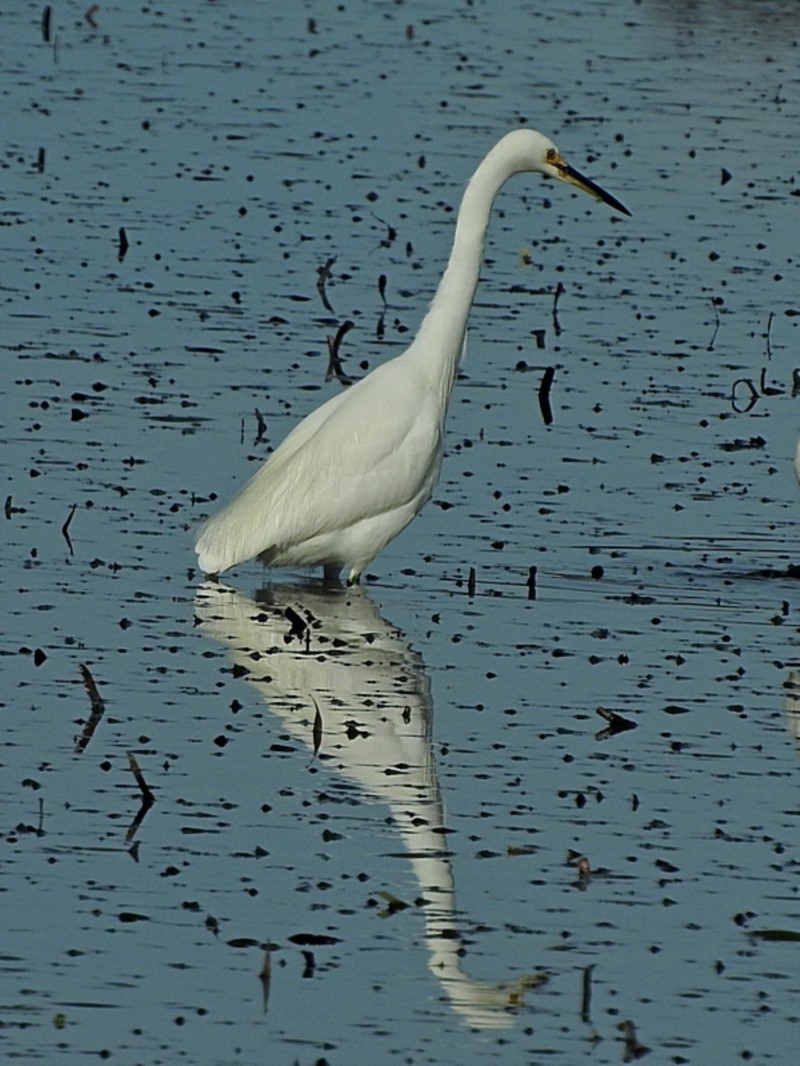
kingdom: Animalia
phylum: Chordata
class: Aves
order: Pelecaniformes
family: Ardeidae
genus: Egretta
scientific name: Egretta garzetta
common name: Little egret
